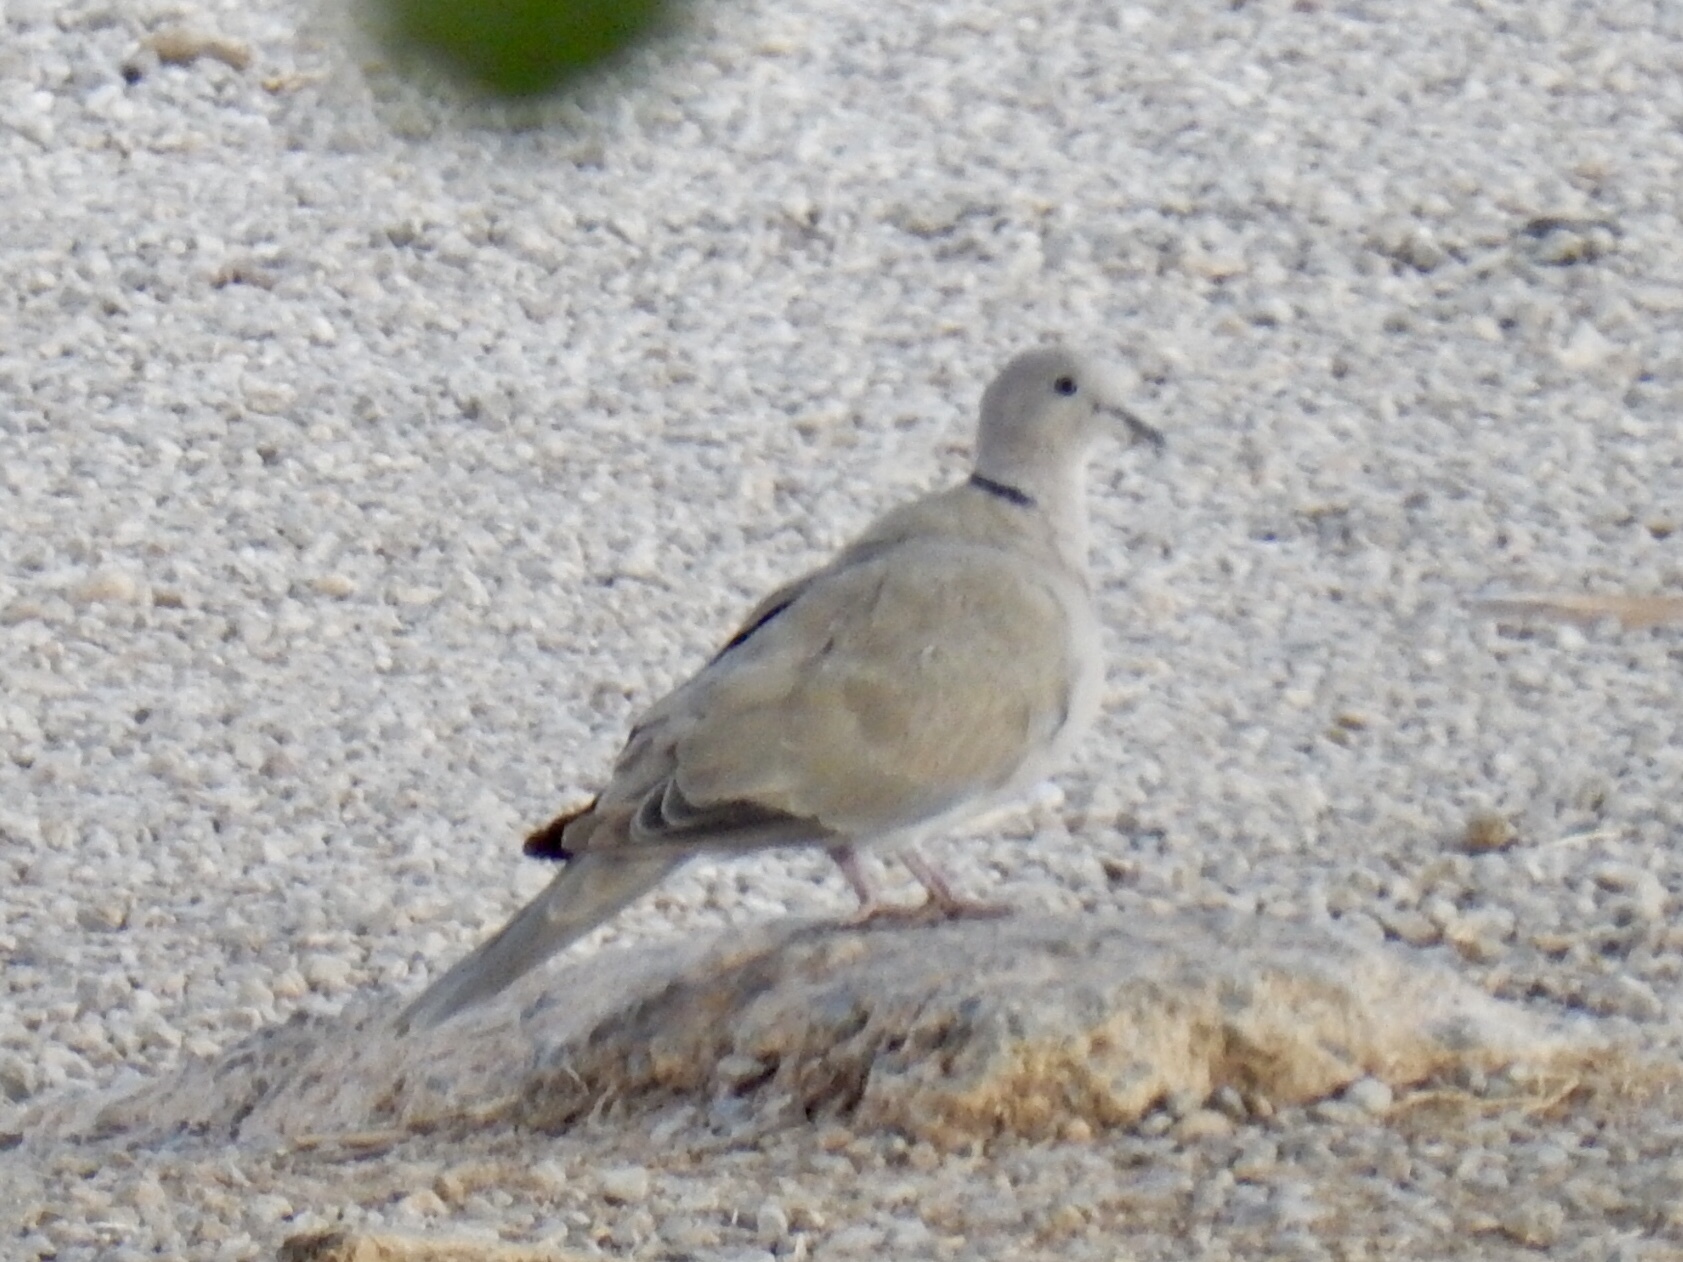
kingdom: Animalia
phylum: Chordata
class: Aves
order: Columbiformes
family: Columbidae
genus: Streptopelia
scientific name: Streptopelia decaocto
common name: Eurasian collared dove
